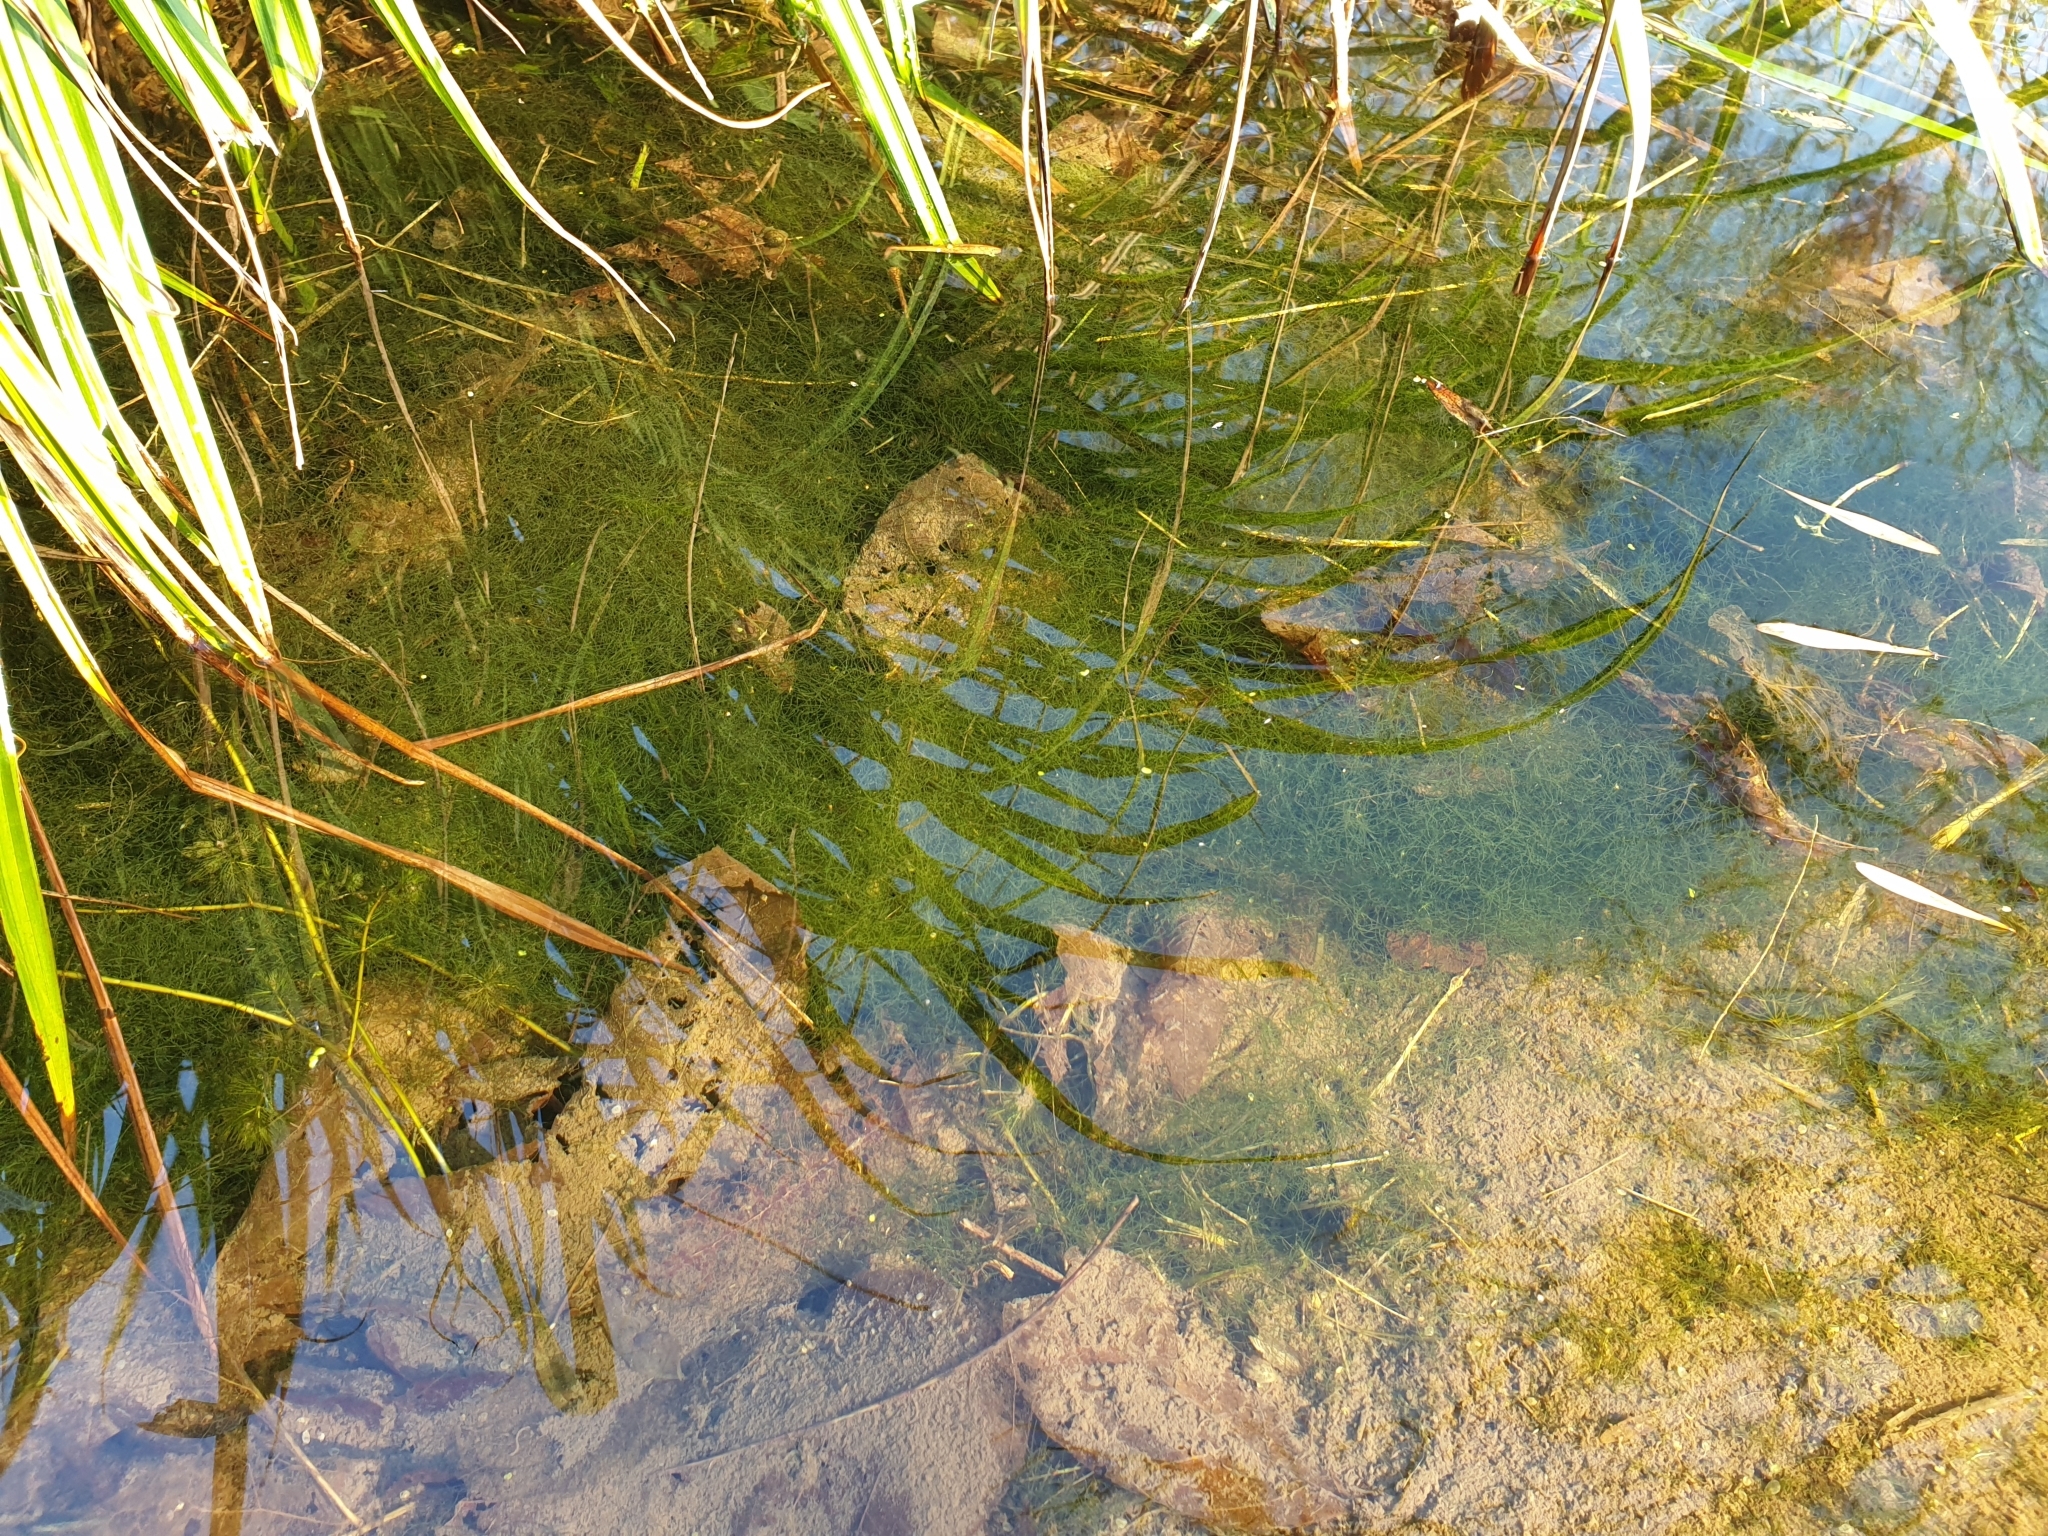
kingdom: Plantae
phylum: Tracheophyta
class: Magnoliopsida
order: Ceratophyllales
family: Ceratophyllaceae
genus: Ceratophyllum
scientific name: Ceratophyllum demersum
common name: Rigid hornwort
